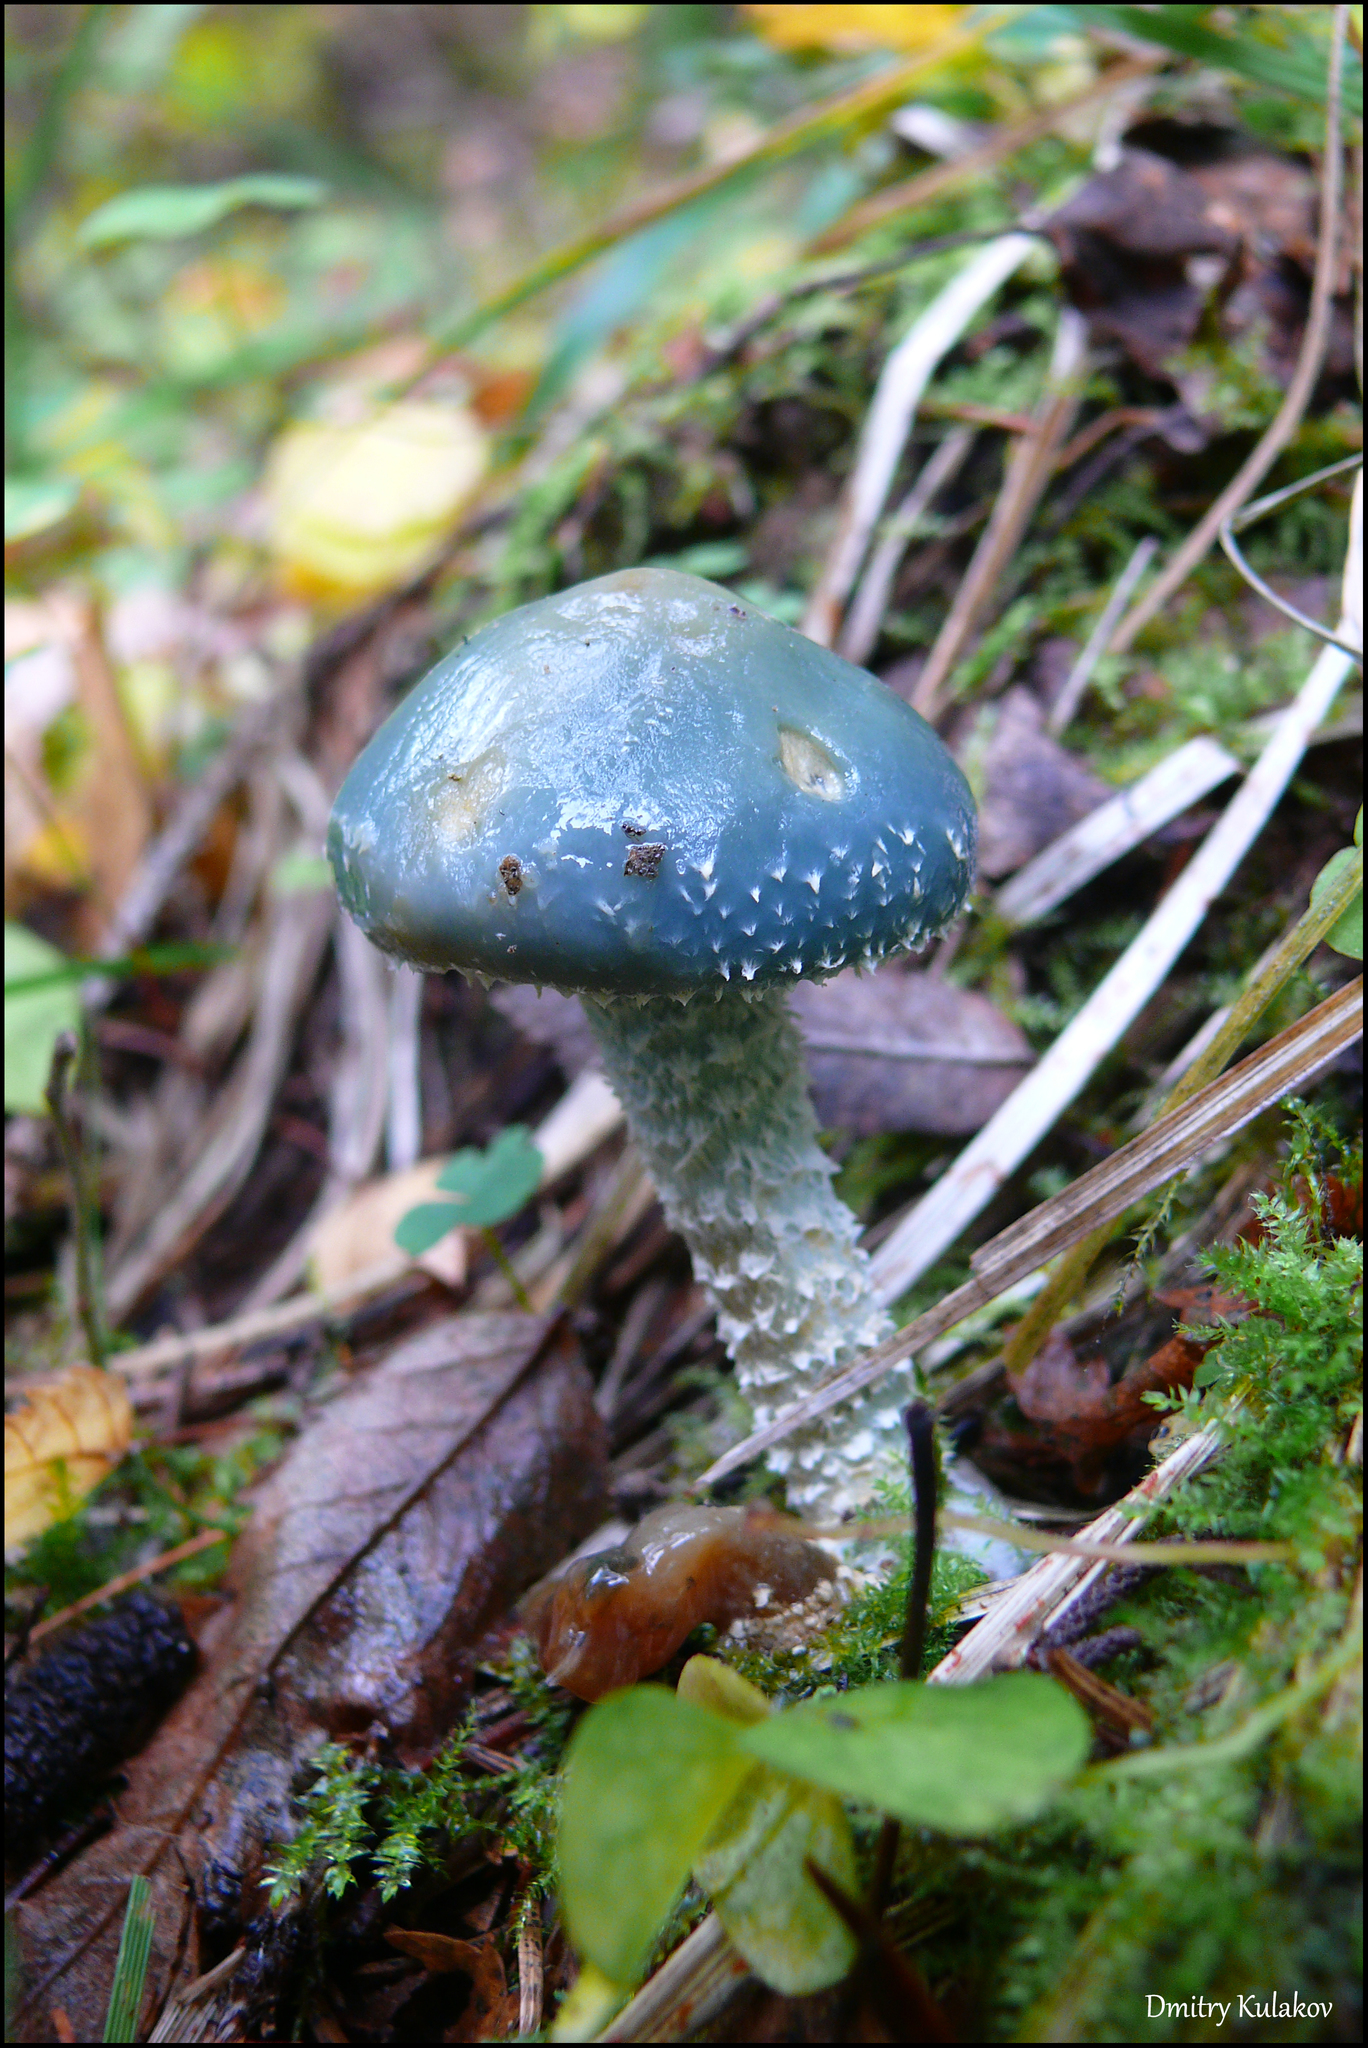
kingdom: Fungi
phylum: Basidiomycota
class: Agaricomycetes
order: Agaricales
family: Strophariaceae
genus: Stropharia
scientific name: Stropharia aeruginosa
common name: Verdigris roundhead
